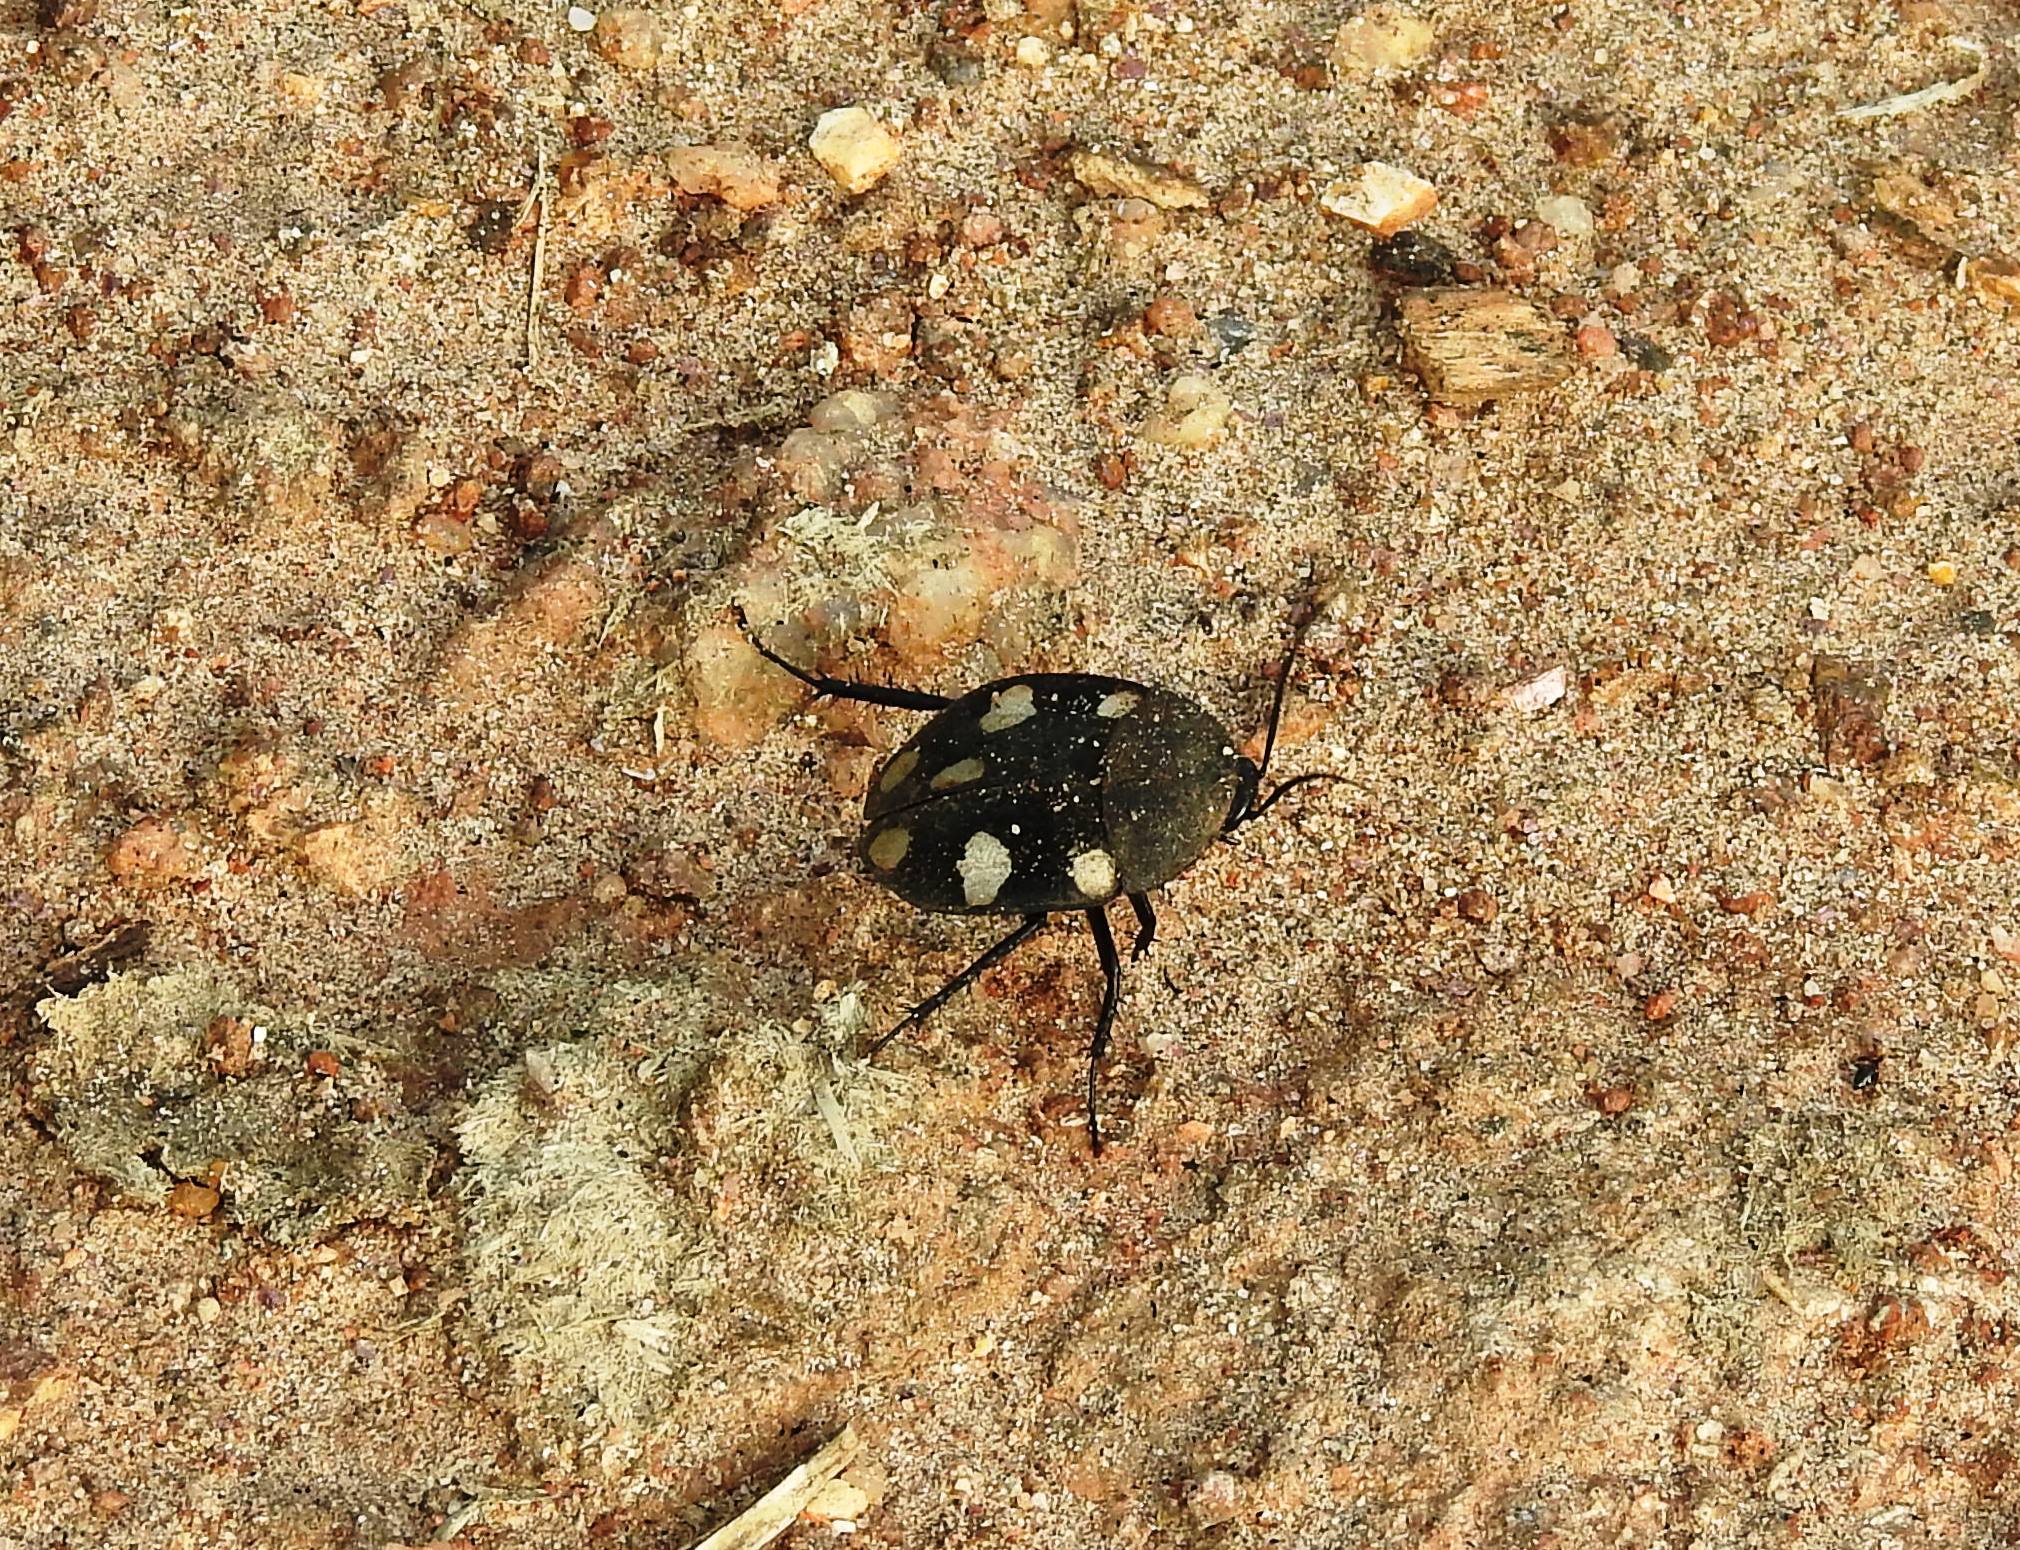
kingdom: Animalia
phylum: Arthropoda
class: Insecta
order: Blattodea
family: Corydiidae
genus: Therea
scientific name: Therea petiveriana
